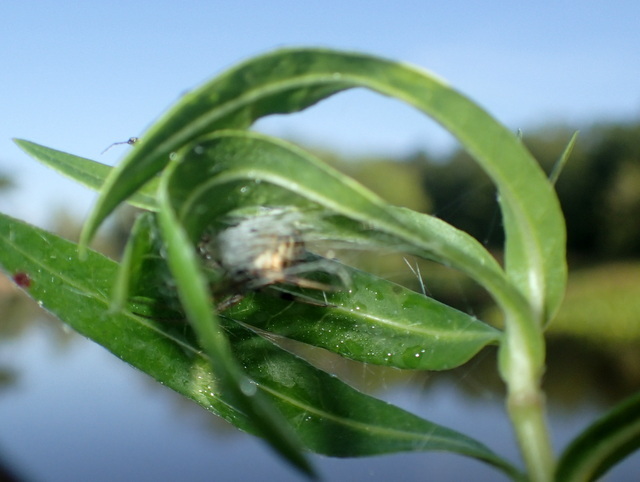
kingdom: Animalia
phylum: Arthropoda
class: Arachnida
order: Araneae
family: Araneidae
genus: Neoscona
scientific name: Neoscona arabesca
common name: Orb weavers
